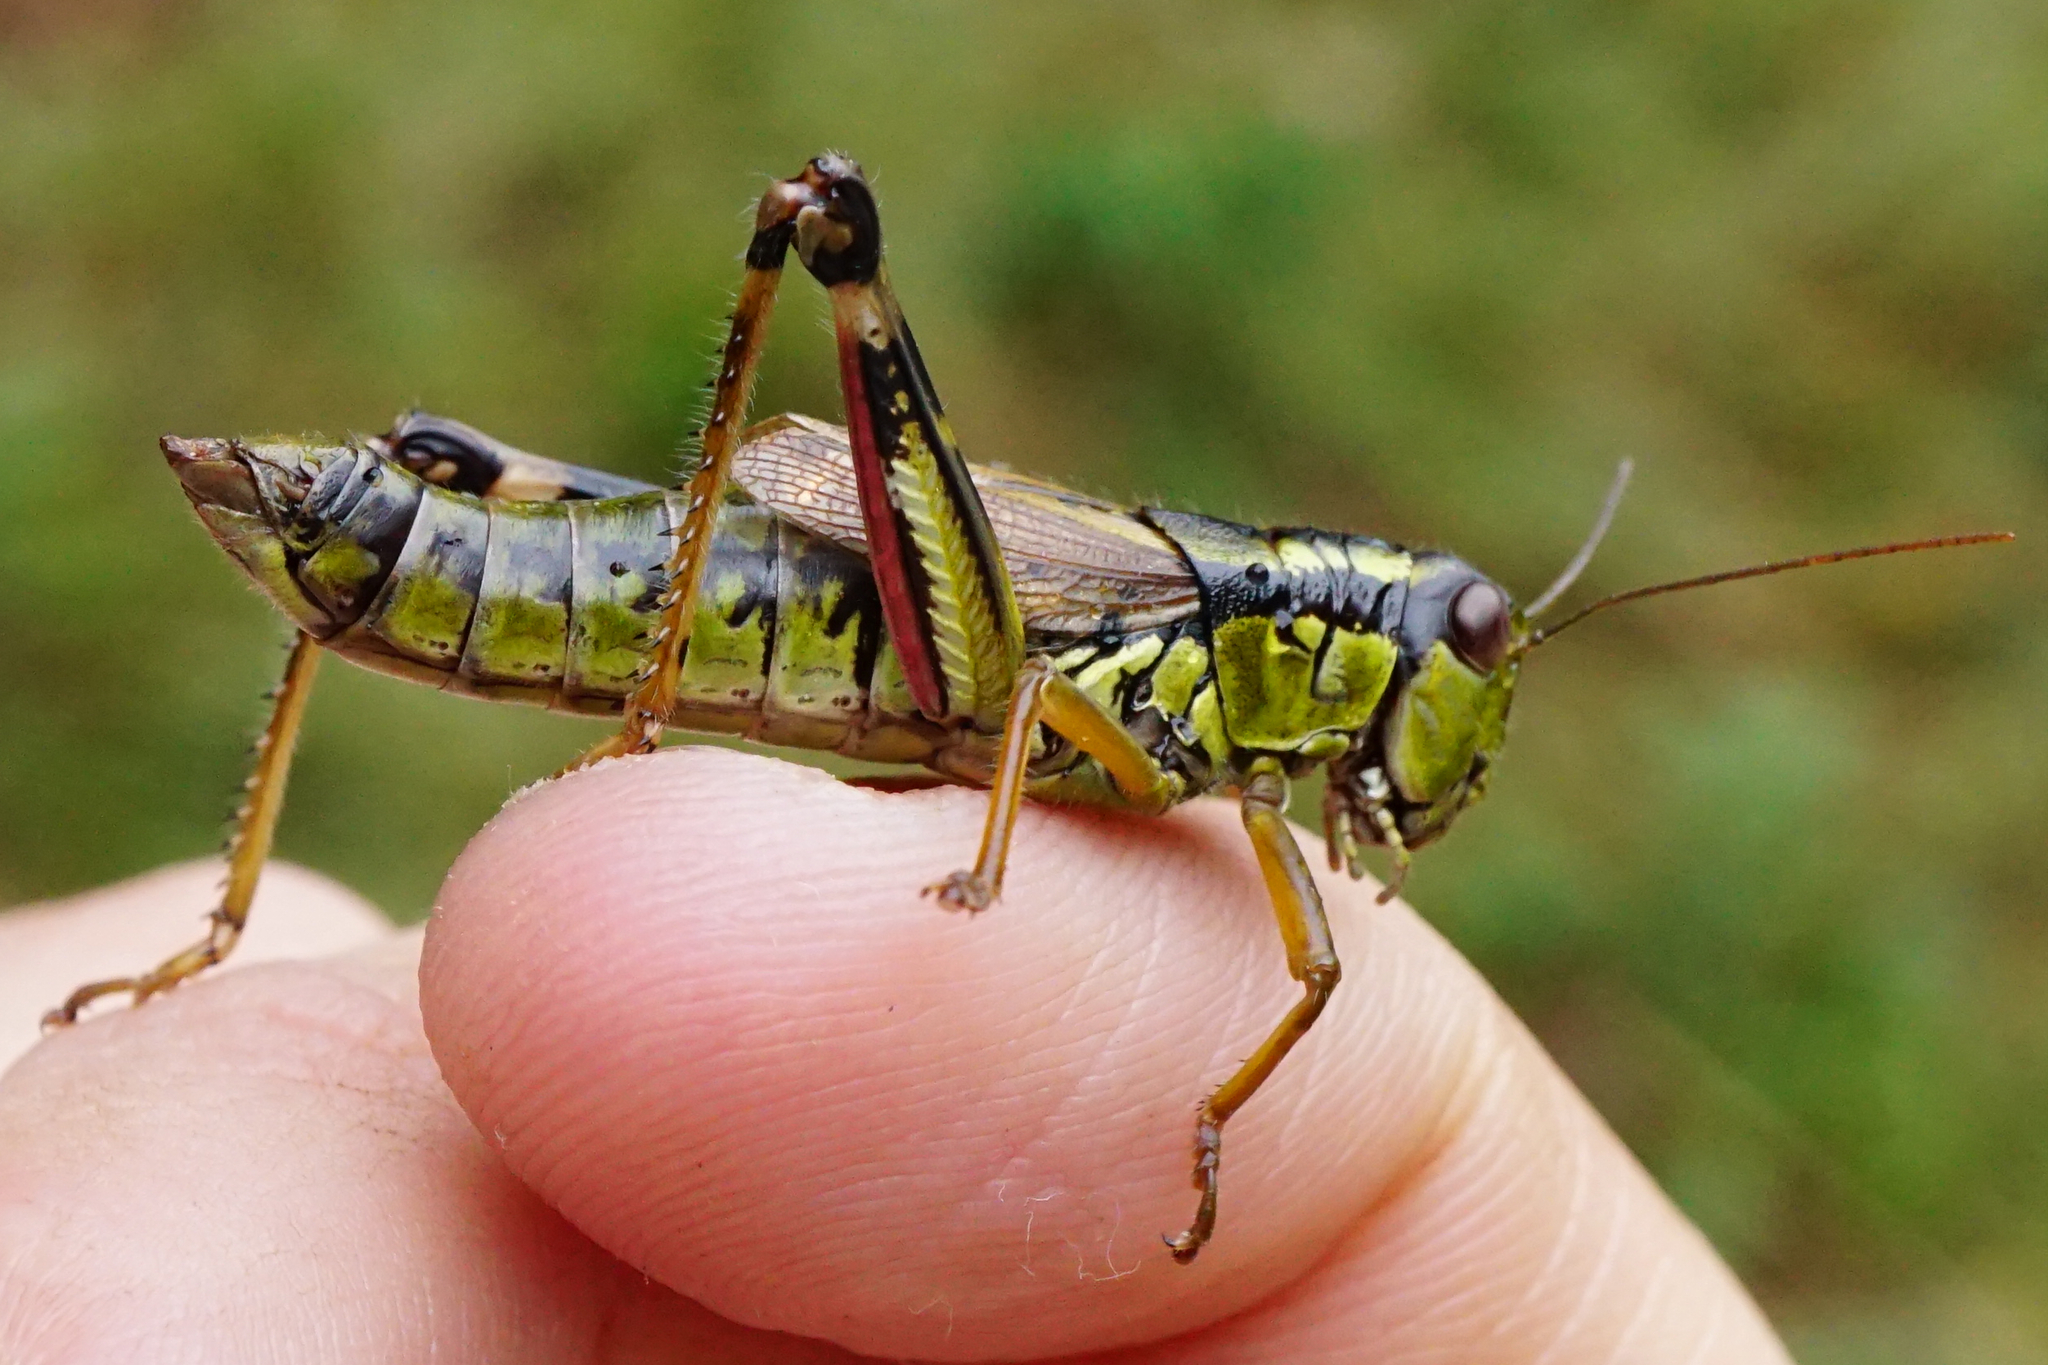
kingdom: Animalia
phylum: Arthropoda
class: Insecta
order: Orthoptera
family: Acrididae
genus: Miramella
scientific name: Miramella alpina
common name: Green mountain grasshopper
